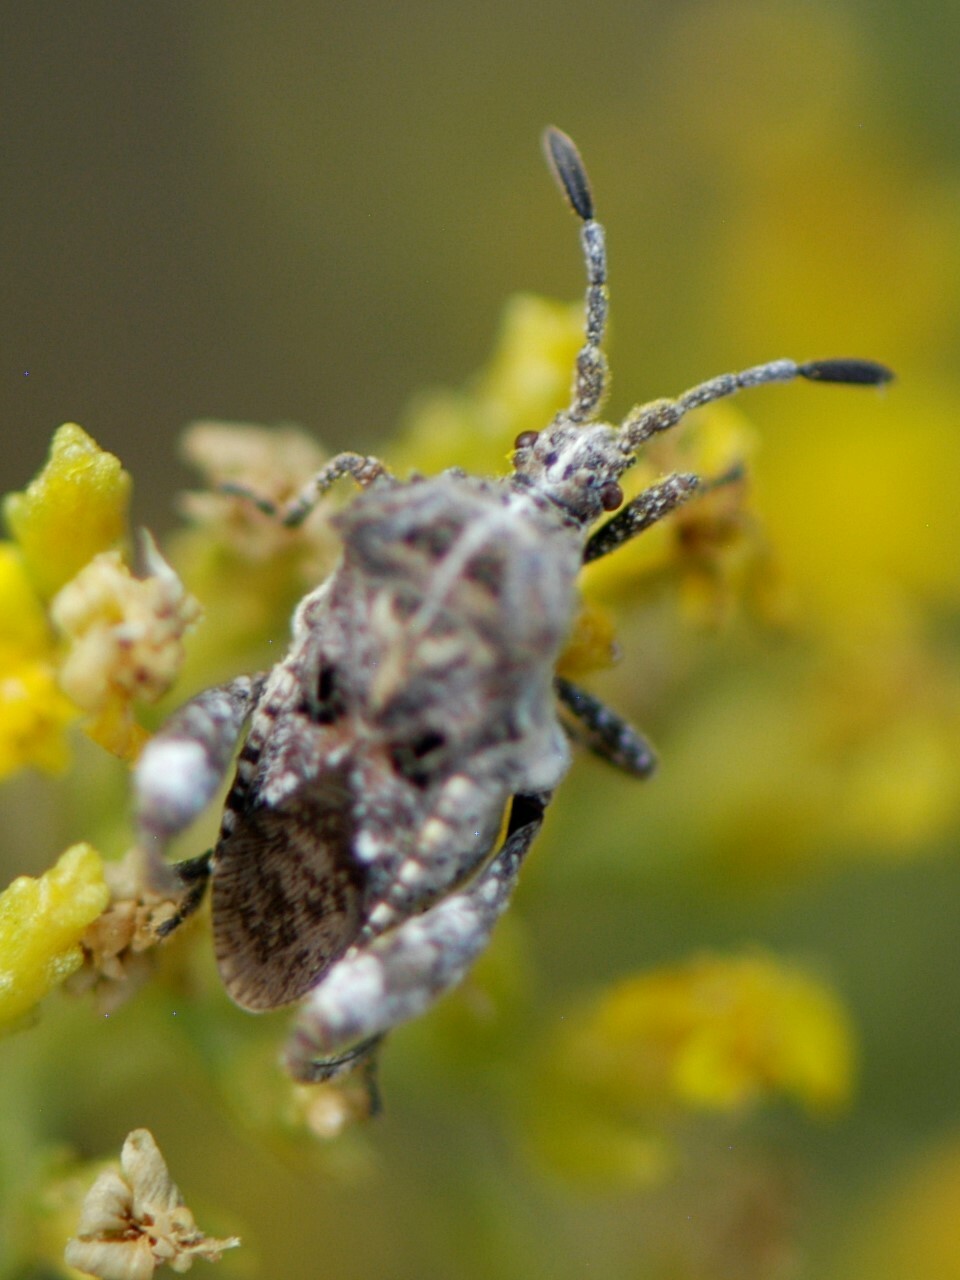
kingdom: Animalia
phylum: Arthropoda
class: Insecta
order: Hemiptera
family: Coreidae
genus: Merocoris
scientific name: Merocoris curtatus
